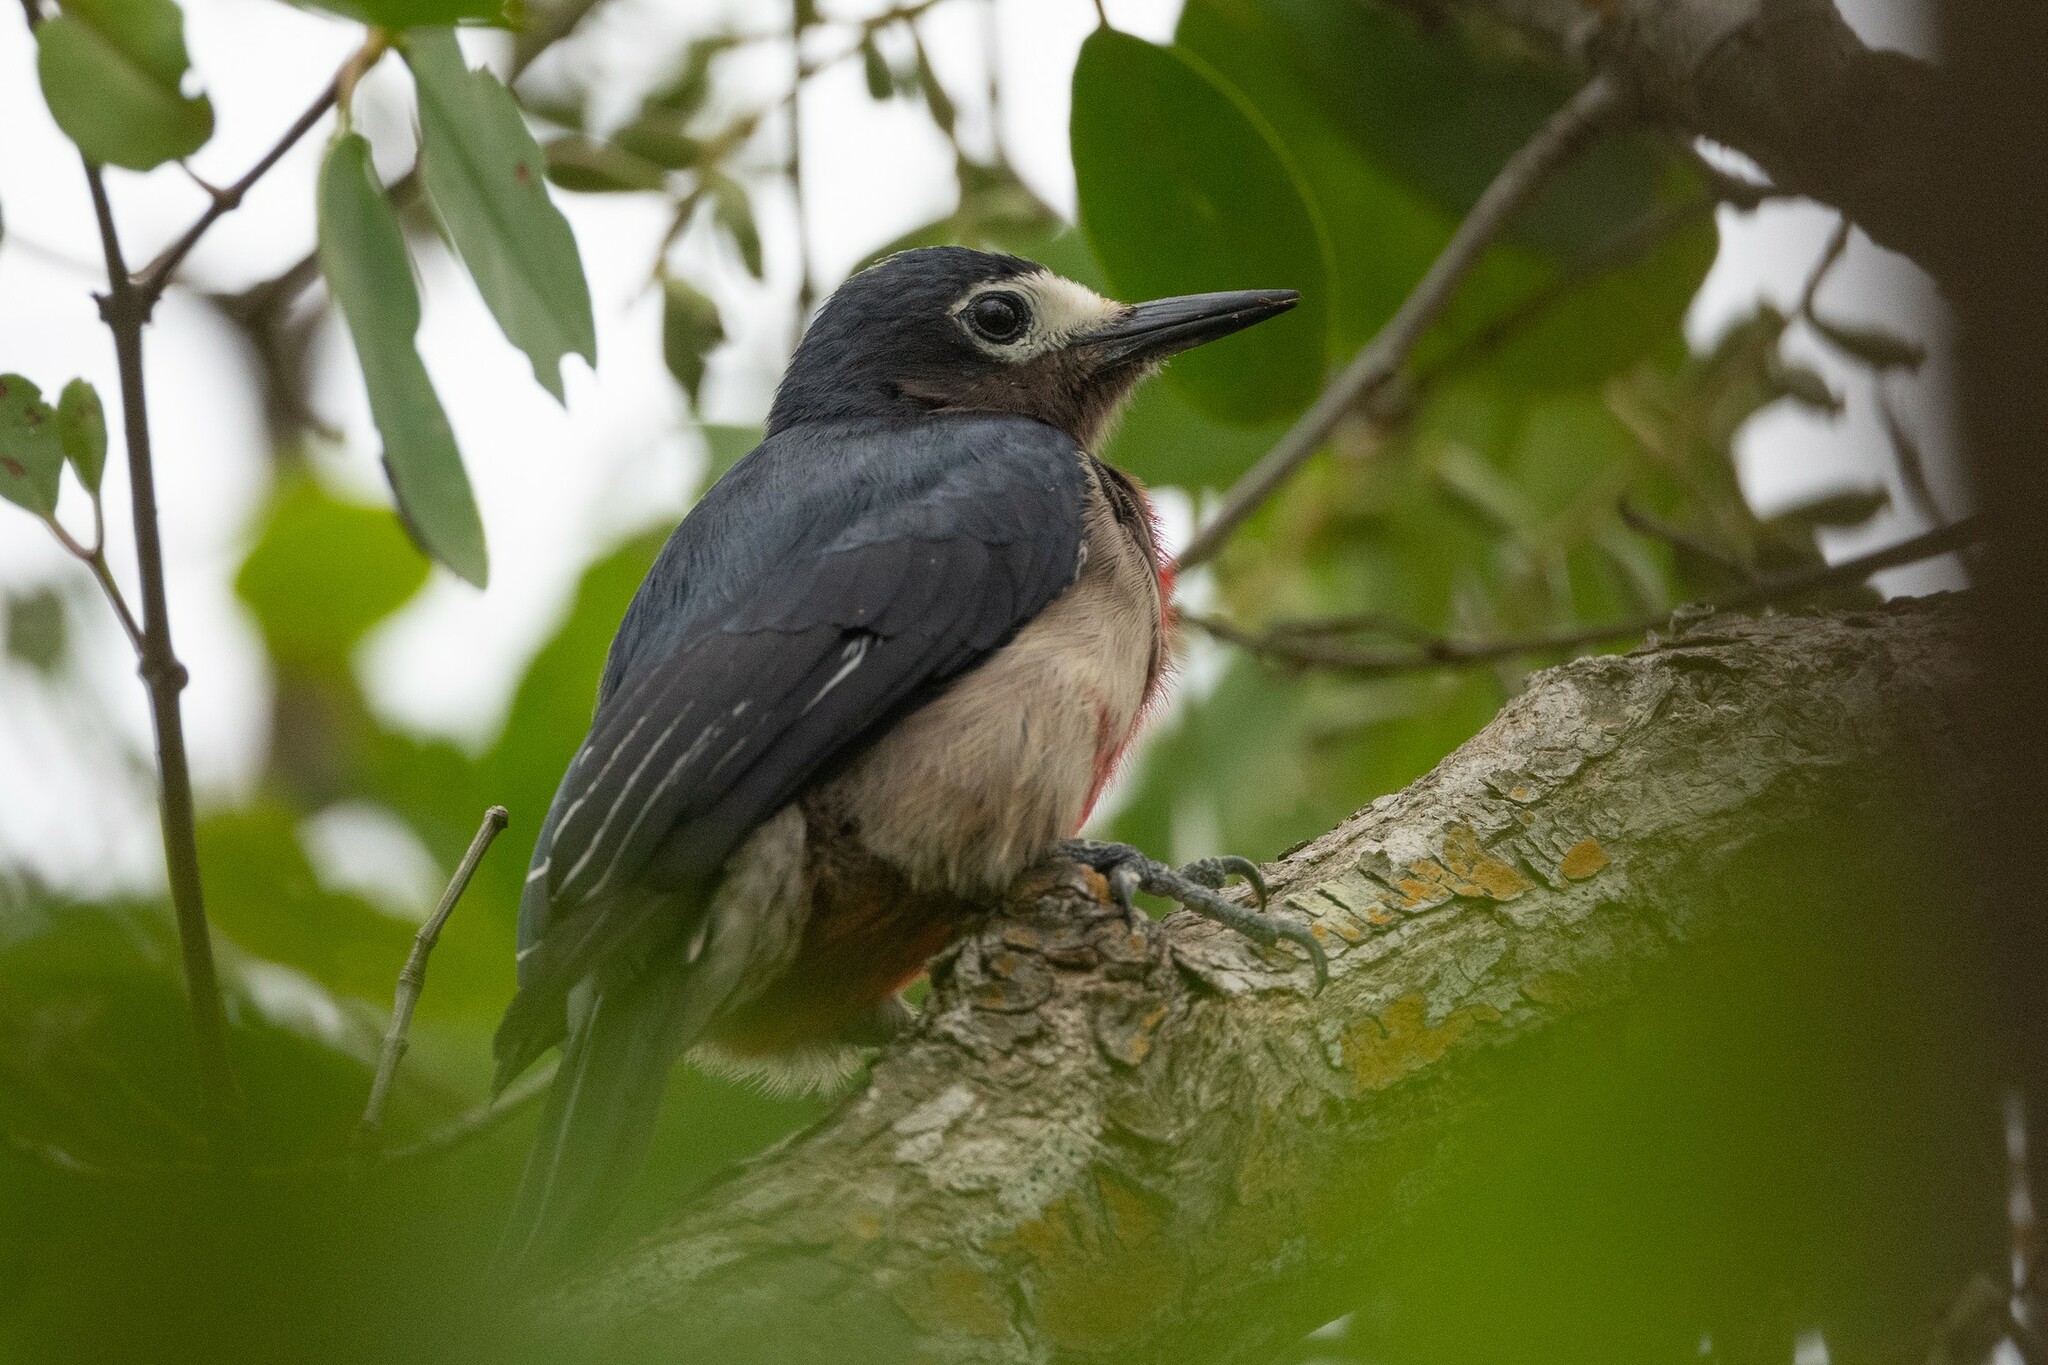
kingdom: Animalia
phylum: Chordata
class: Aves
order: Piciformes
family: Picidae
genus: Melanerpes
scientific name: Melanerpes portoricensis
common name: Puerto rican woodpecker
